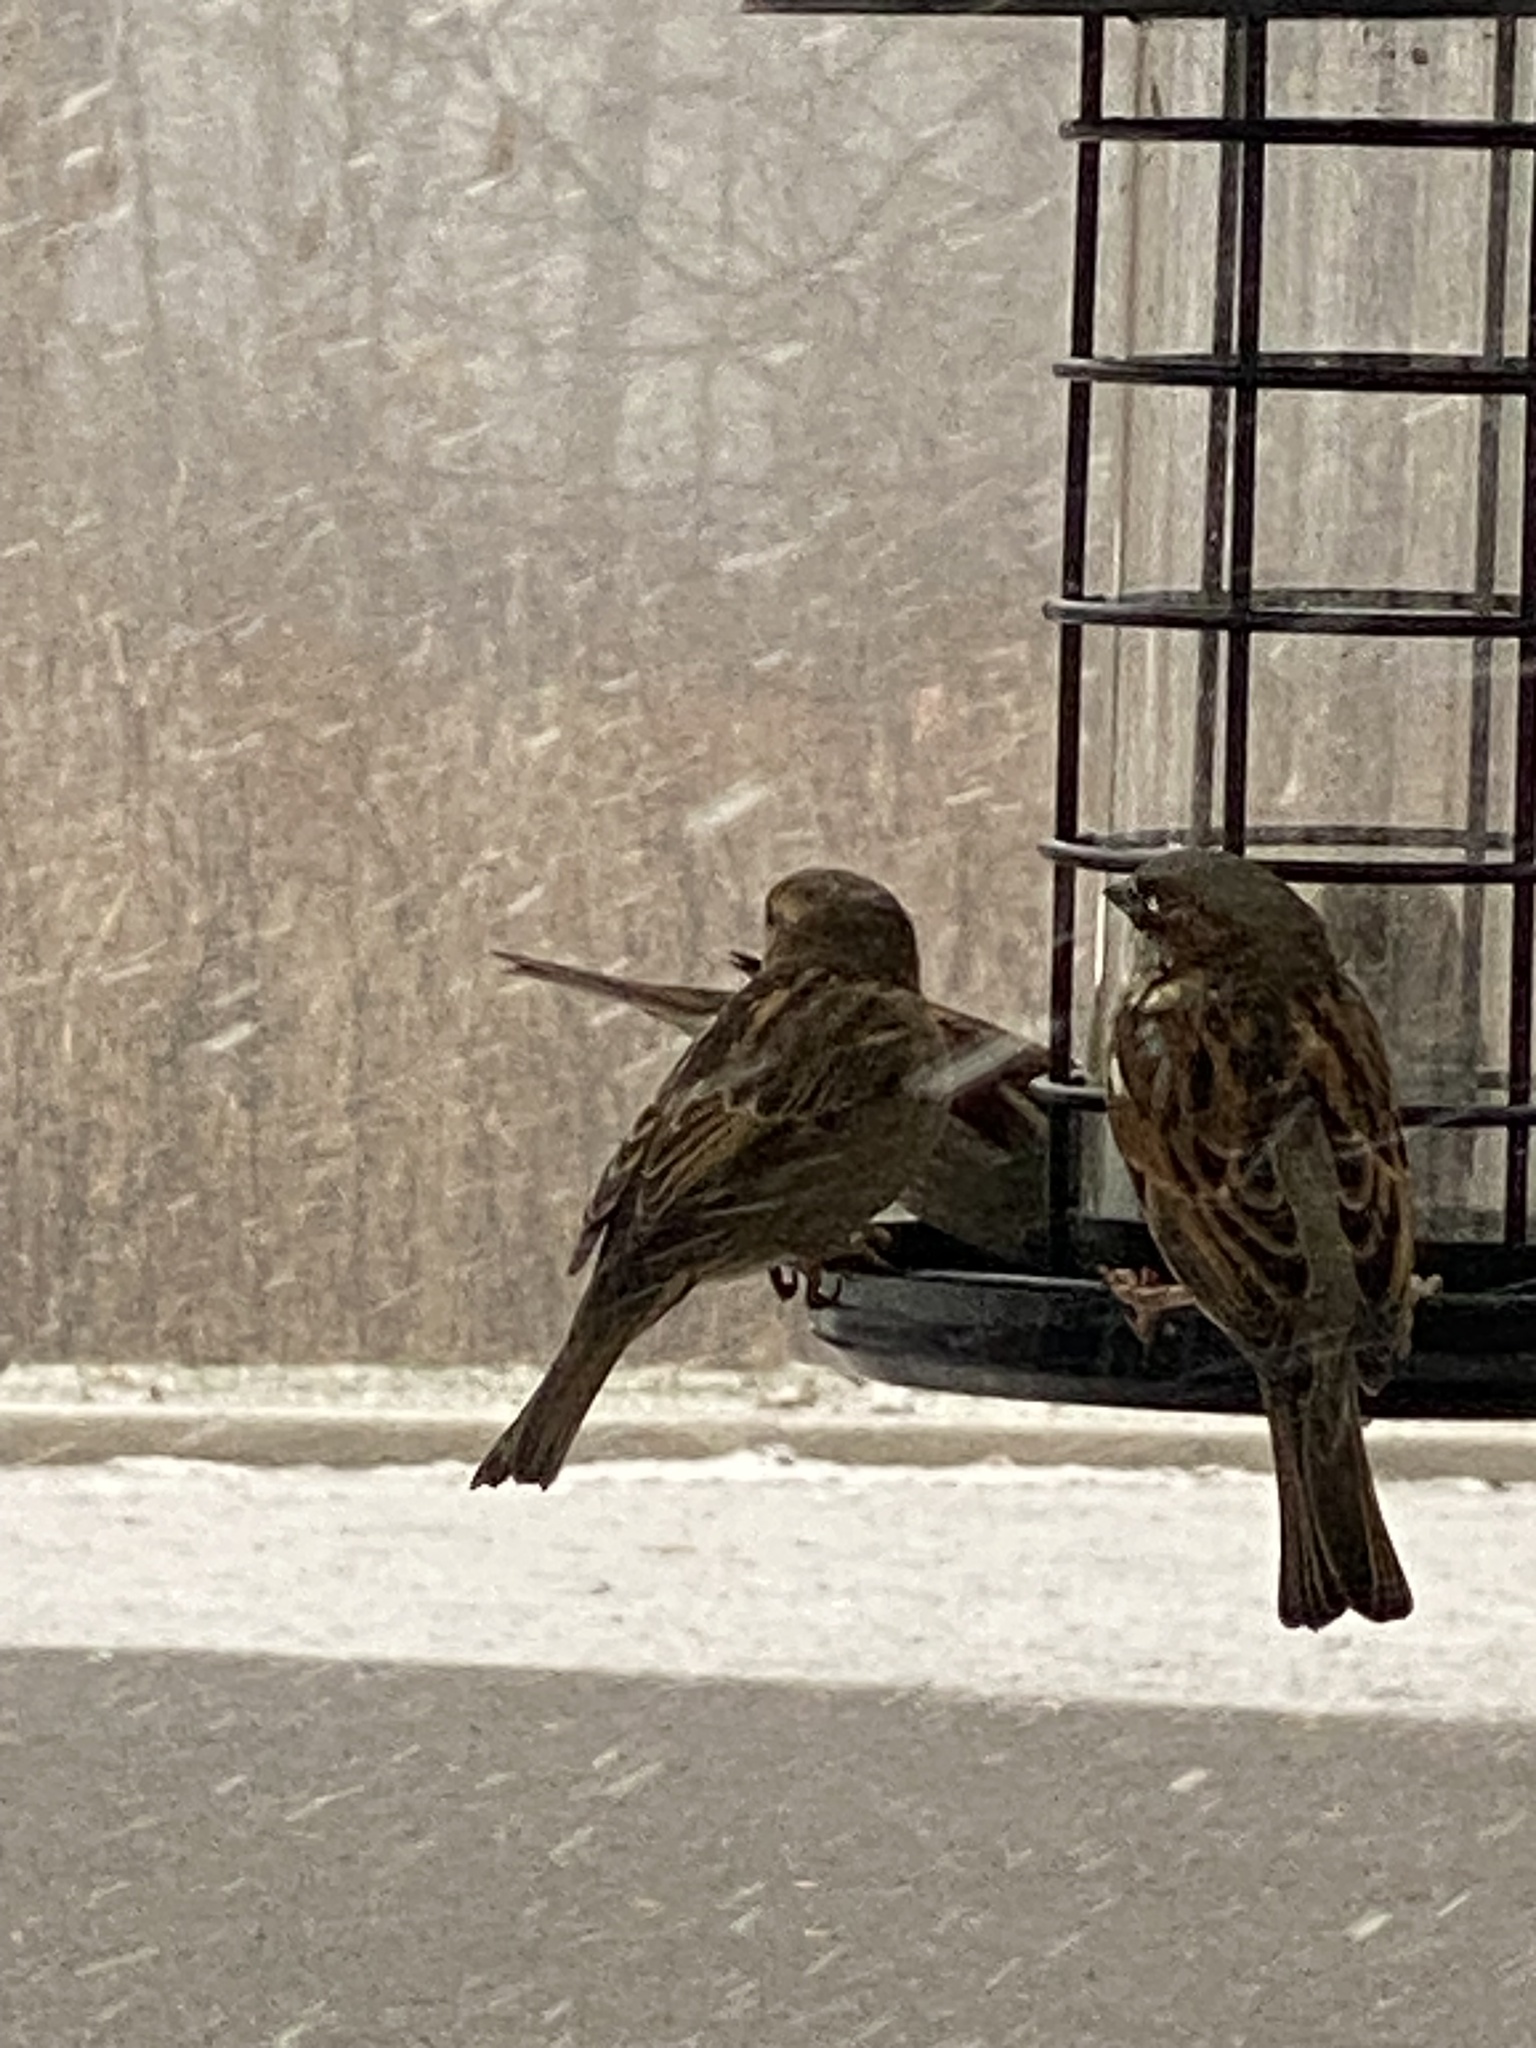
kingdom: Animalia
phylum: Chordata
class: Aves
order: Passeriformes
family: Passeridae
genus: Passer
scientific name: Passer domesticus
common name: House sparrow
